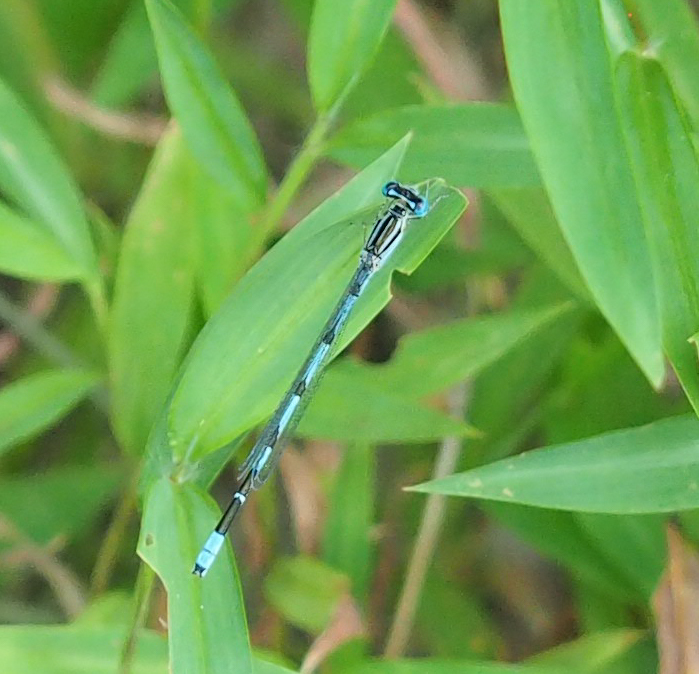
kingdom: Animalia
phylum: Arthropoda
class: Insecta
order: Odonata
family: Coenagrionidae
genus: Enallagma
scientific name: Enallagma durum
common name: Big bluet
